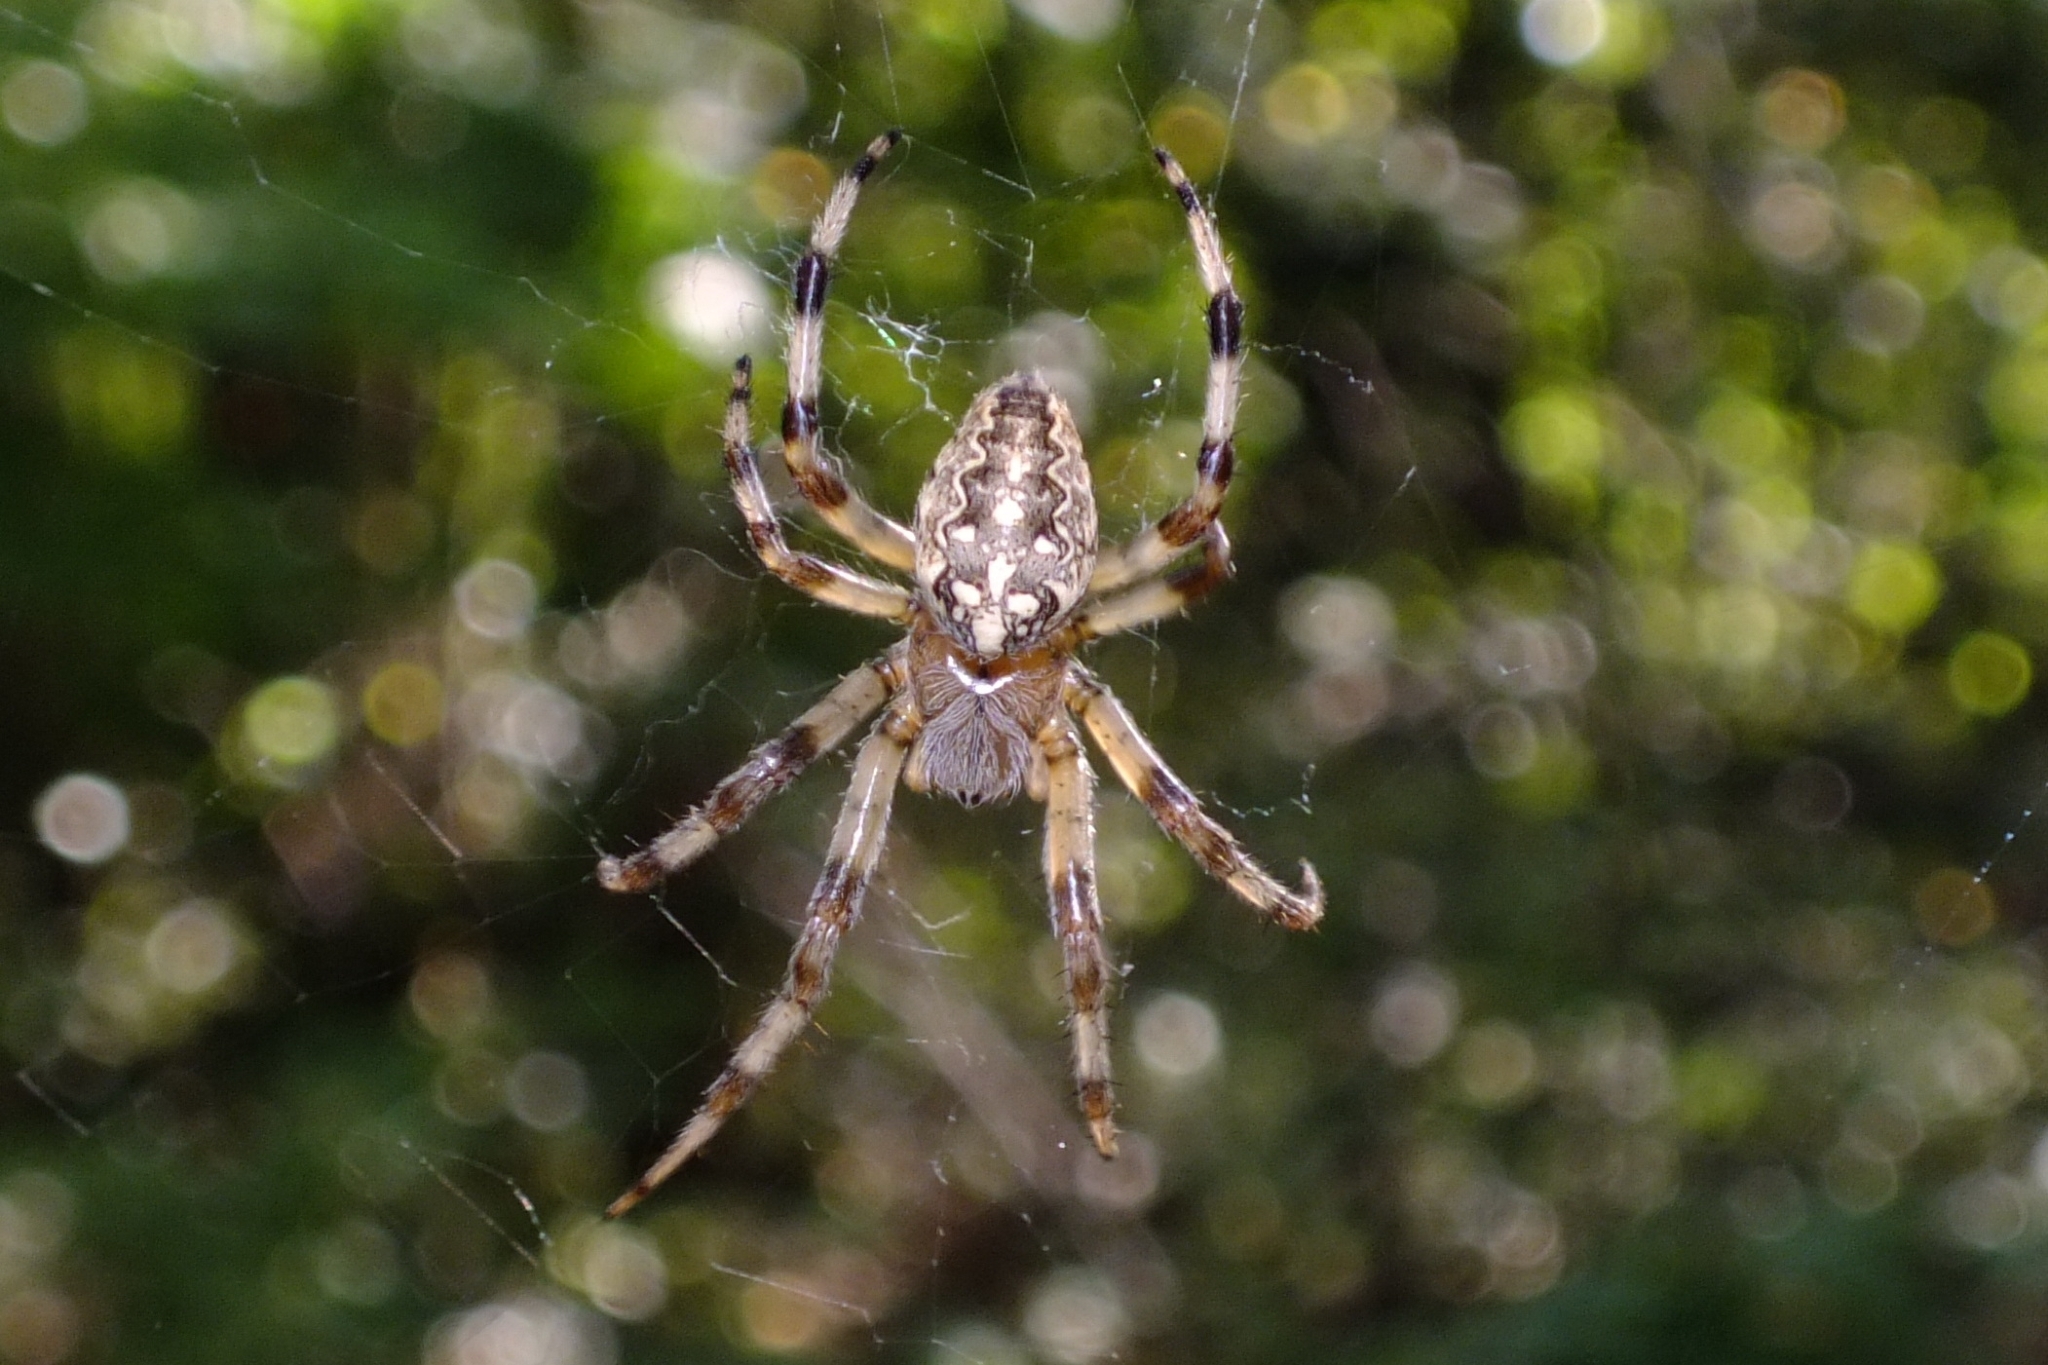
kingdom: Animalia
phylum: Arthropoda
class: Arachnida
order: Araneae
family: Araneidae
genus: Araneus
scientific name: Araneus diadematus
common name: Cross orbweaver
